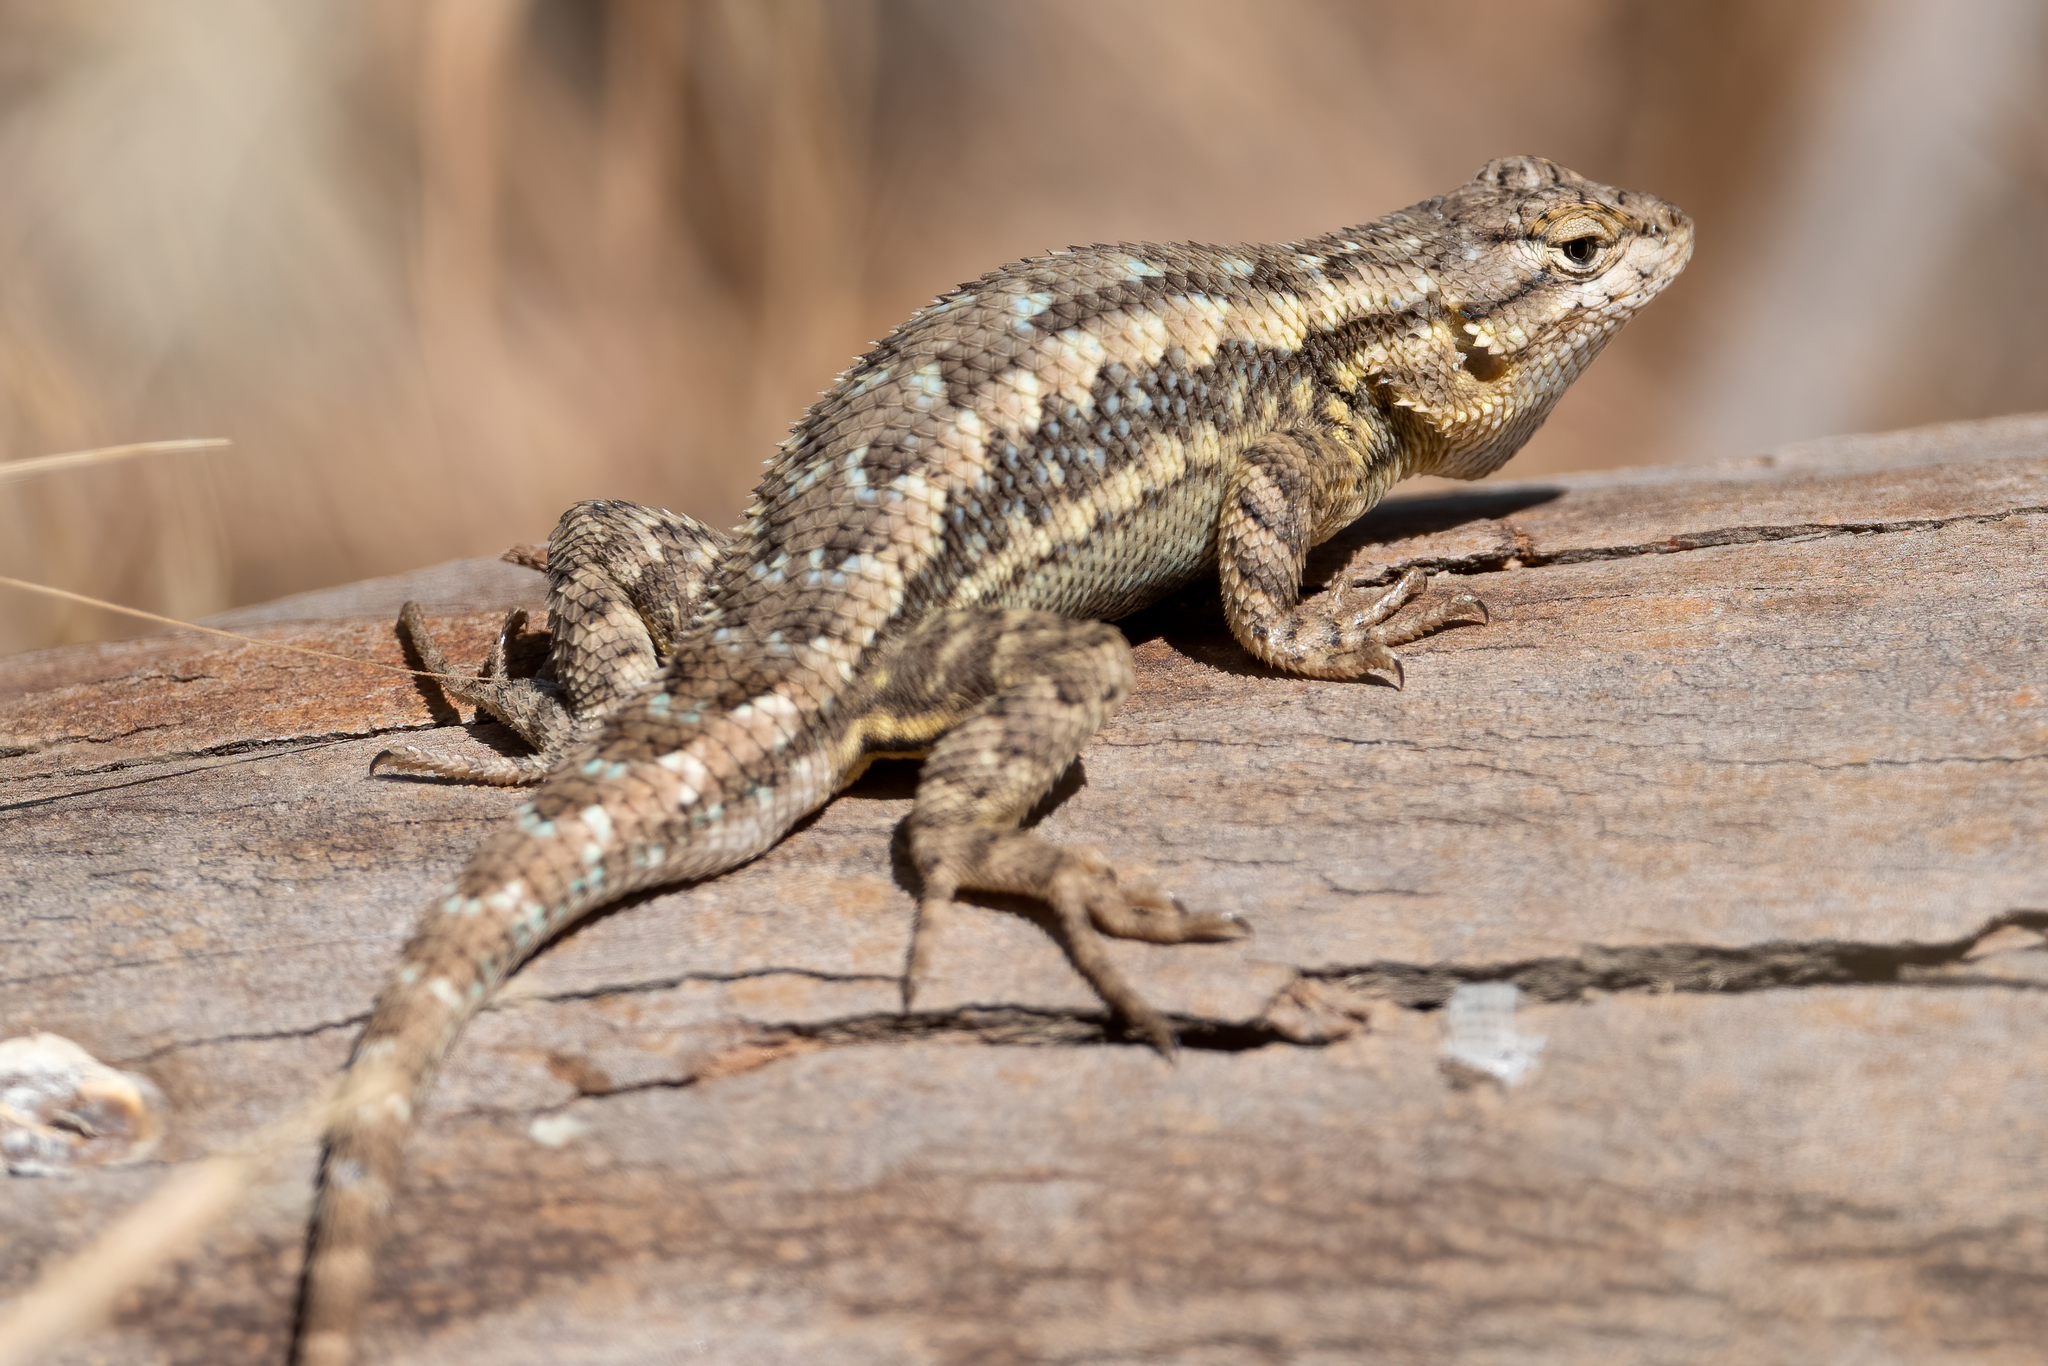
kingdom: Animalia
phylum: Chordata
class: Squamata
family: Phrynosomatidae
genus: Sceloporus
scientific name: Sceloporus occidentalis
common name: Western fence lizard
